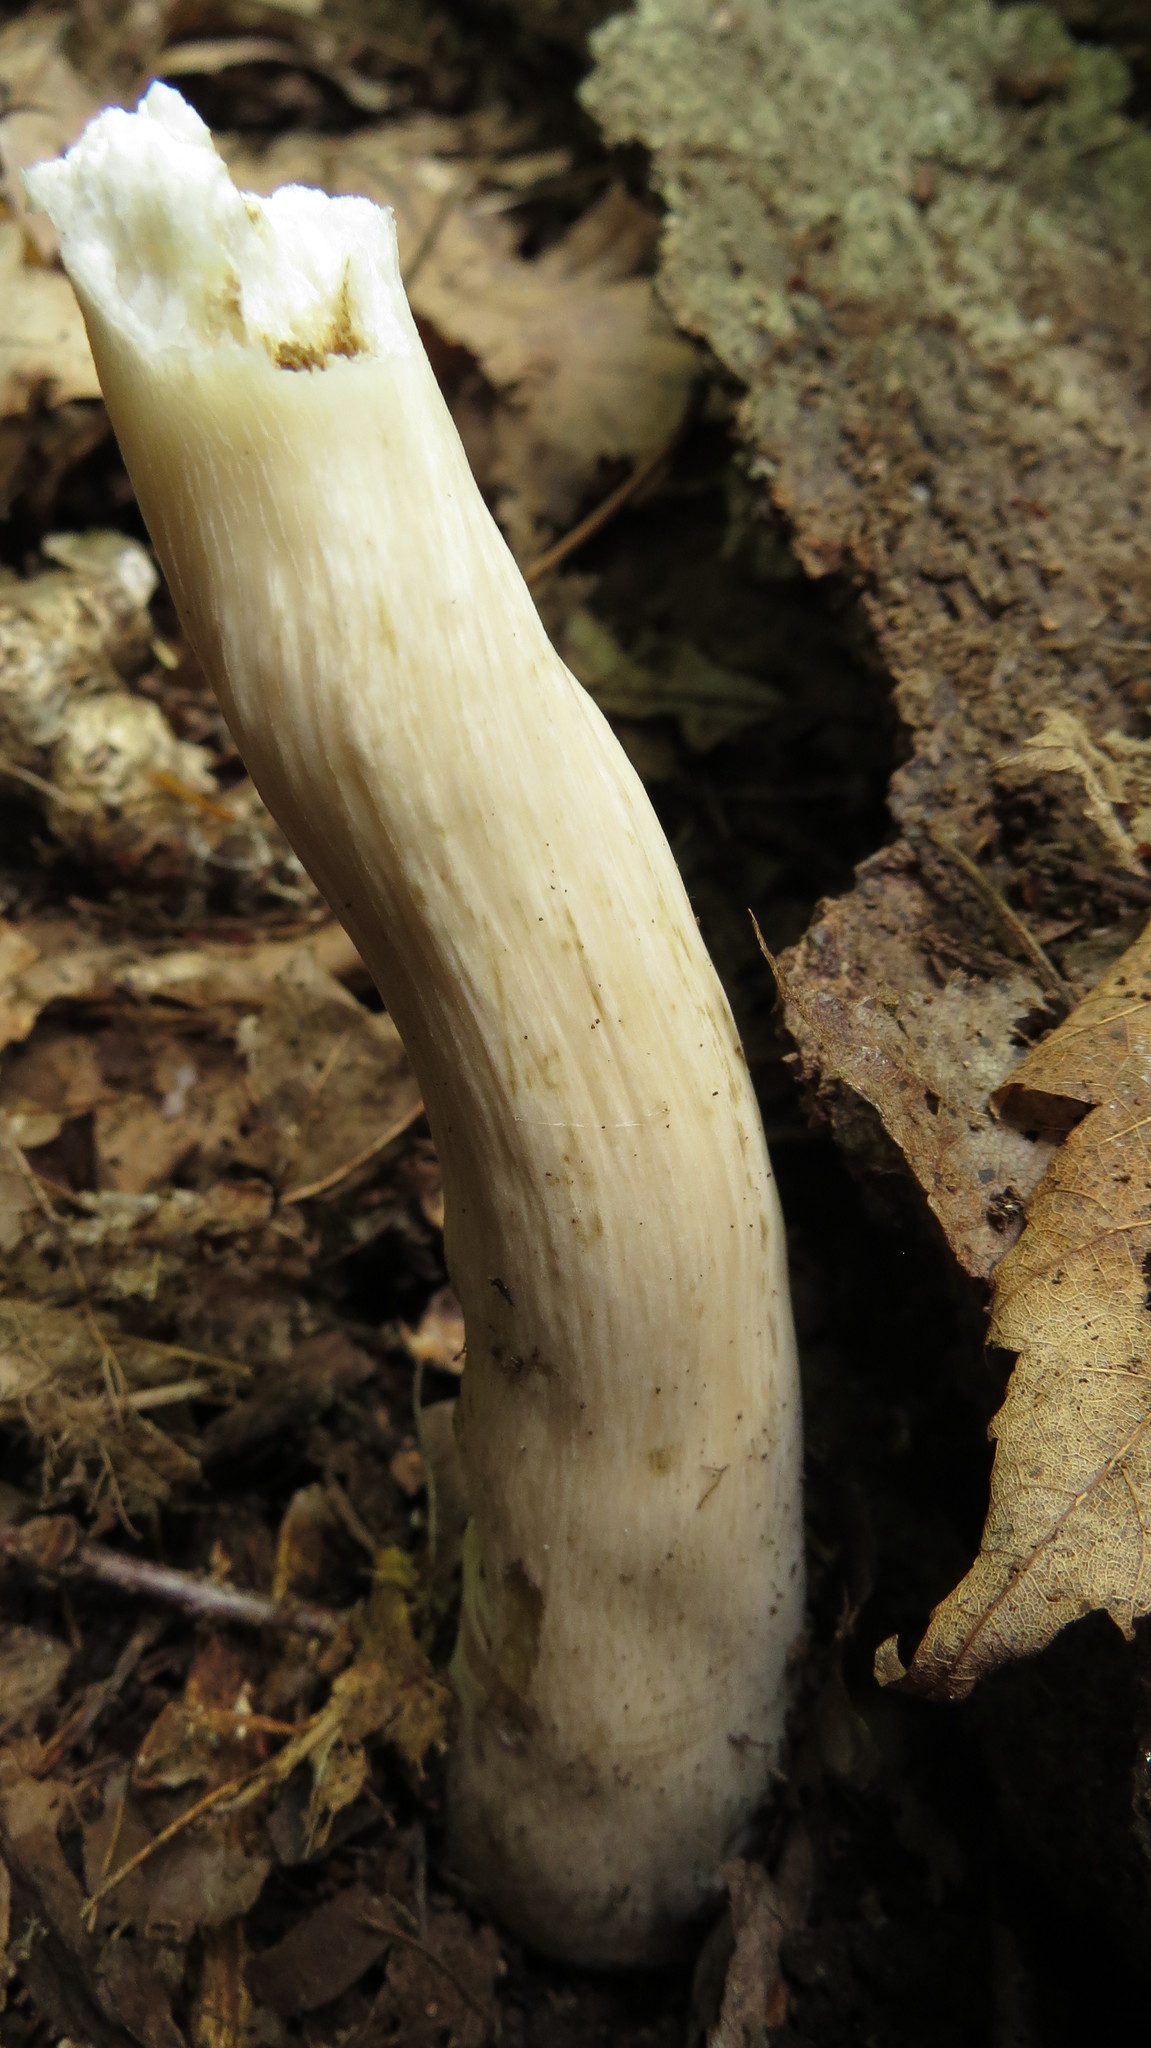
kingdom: Fungi
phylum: Basidiomycota
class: Agaricomycetes
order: Boletales
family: Boletaceae
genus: Tylopilus
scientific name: Tylopilus rubrobrunneus
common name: Reddish brown bitter bolete
